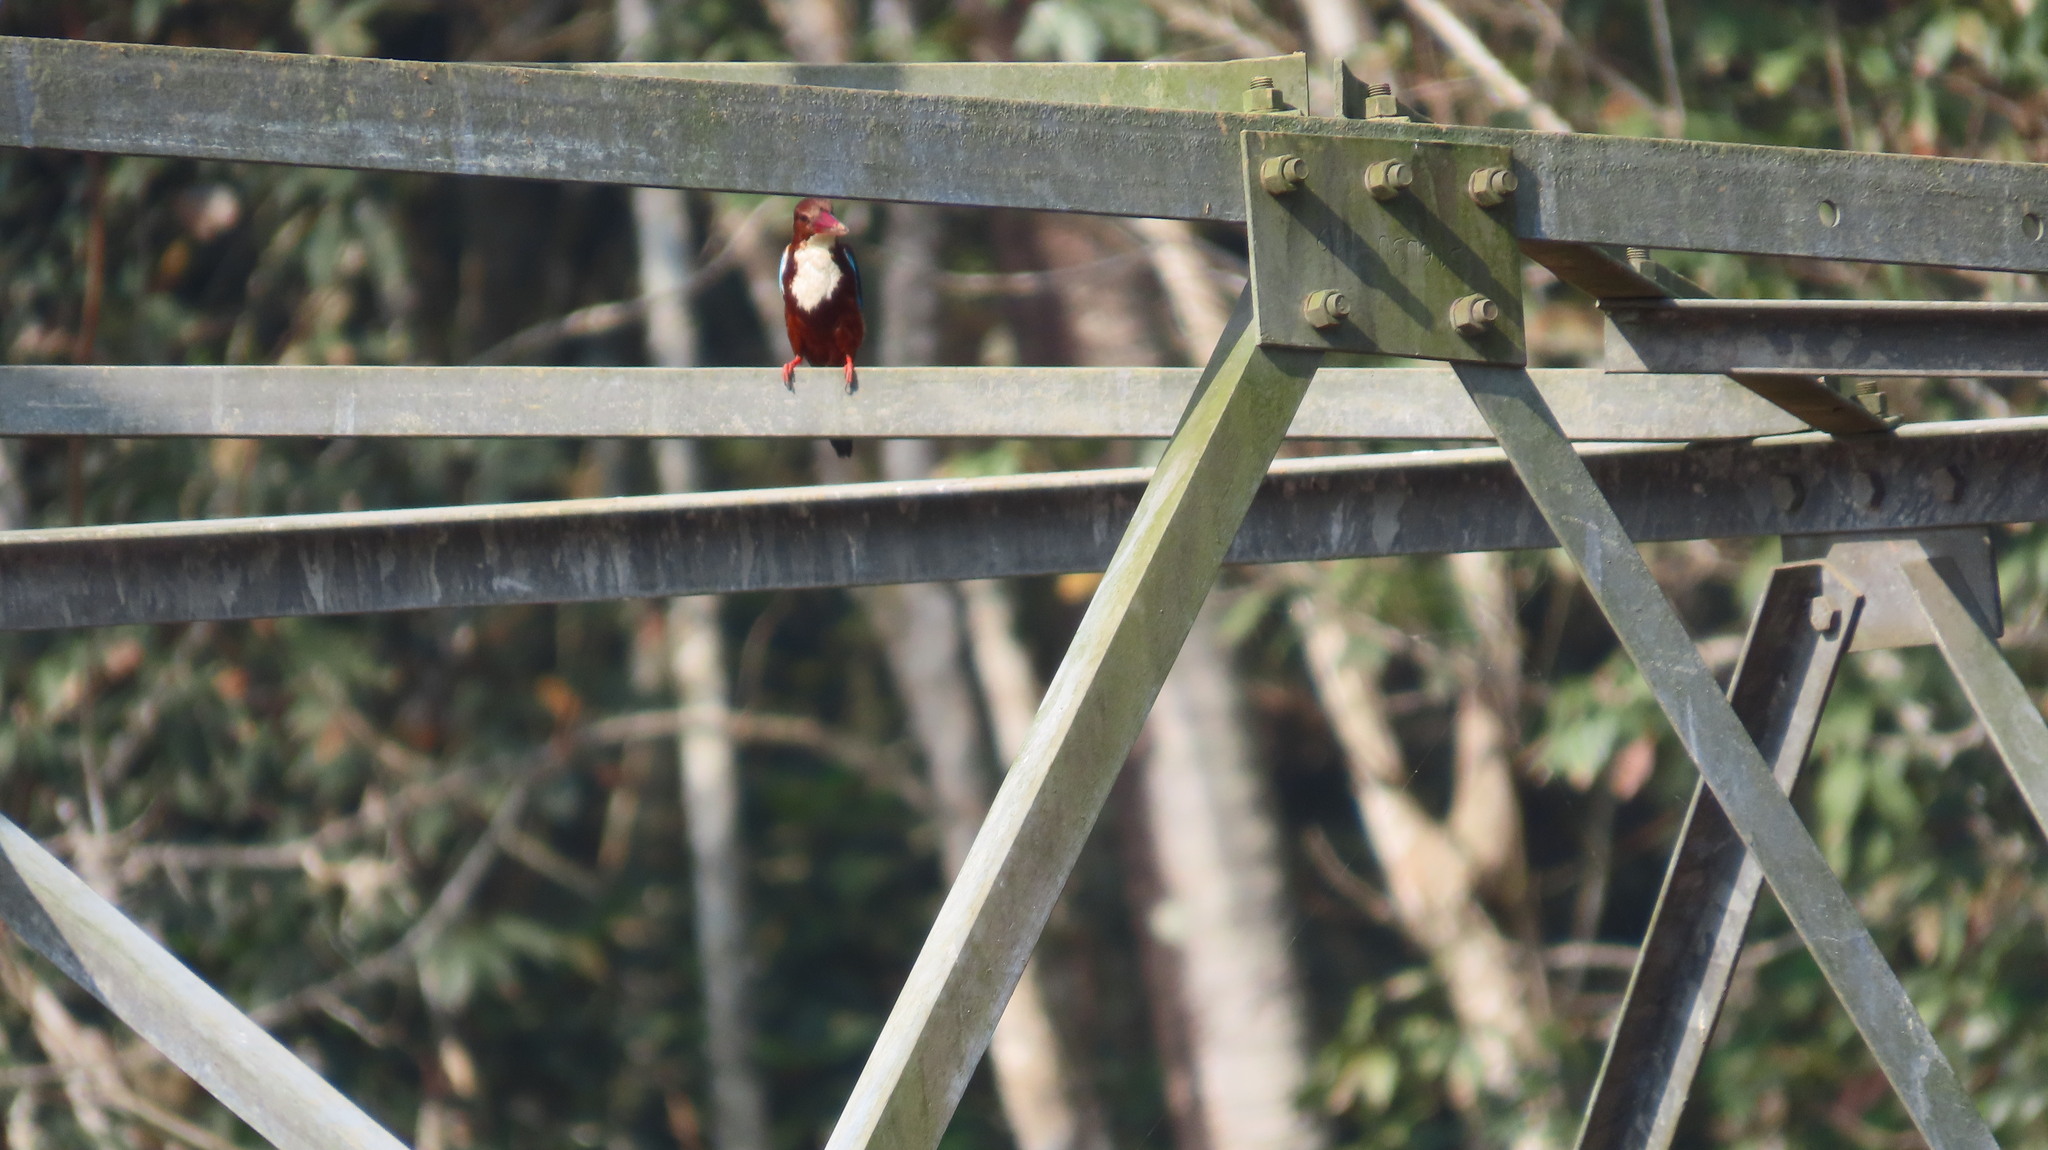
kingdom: Animalia
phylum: Chordata
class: Aves
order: Coraciiformes
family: Alcedinidae
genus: Halcyon
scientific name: Halcyon smyrnensis
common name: White-throated kingfisher
